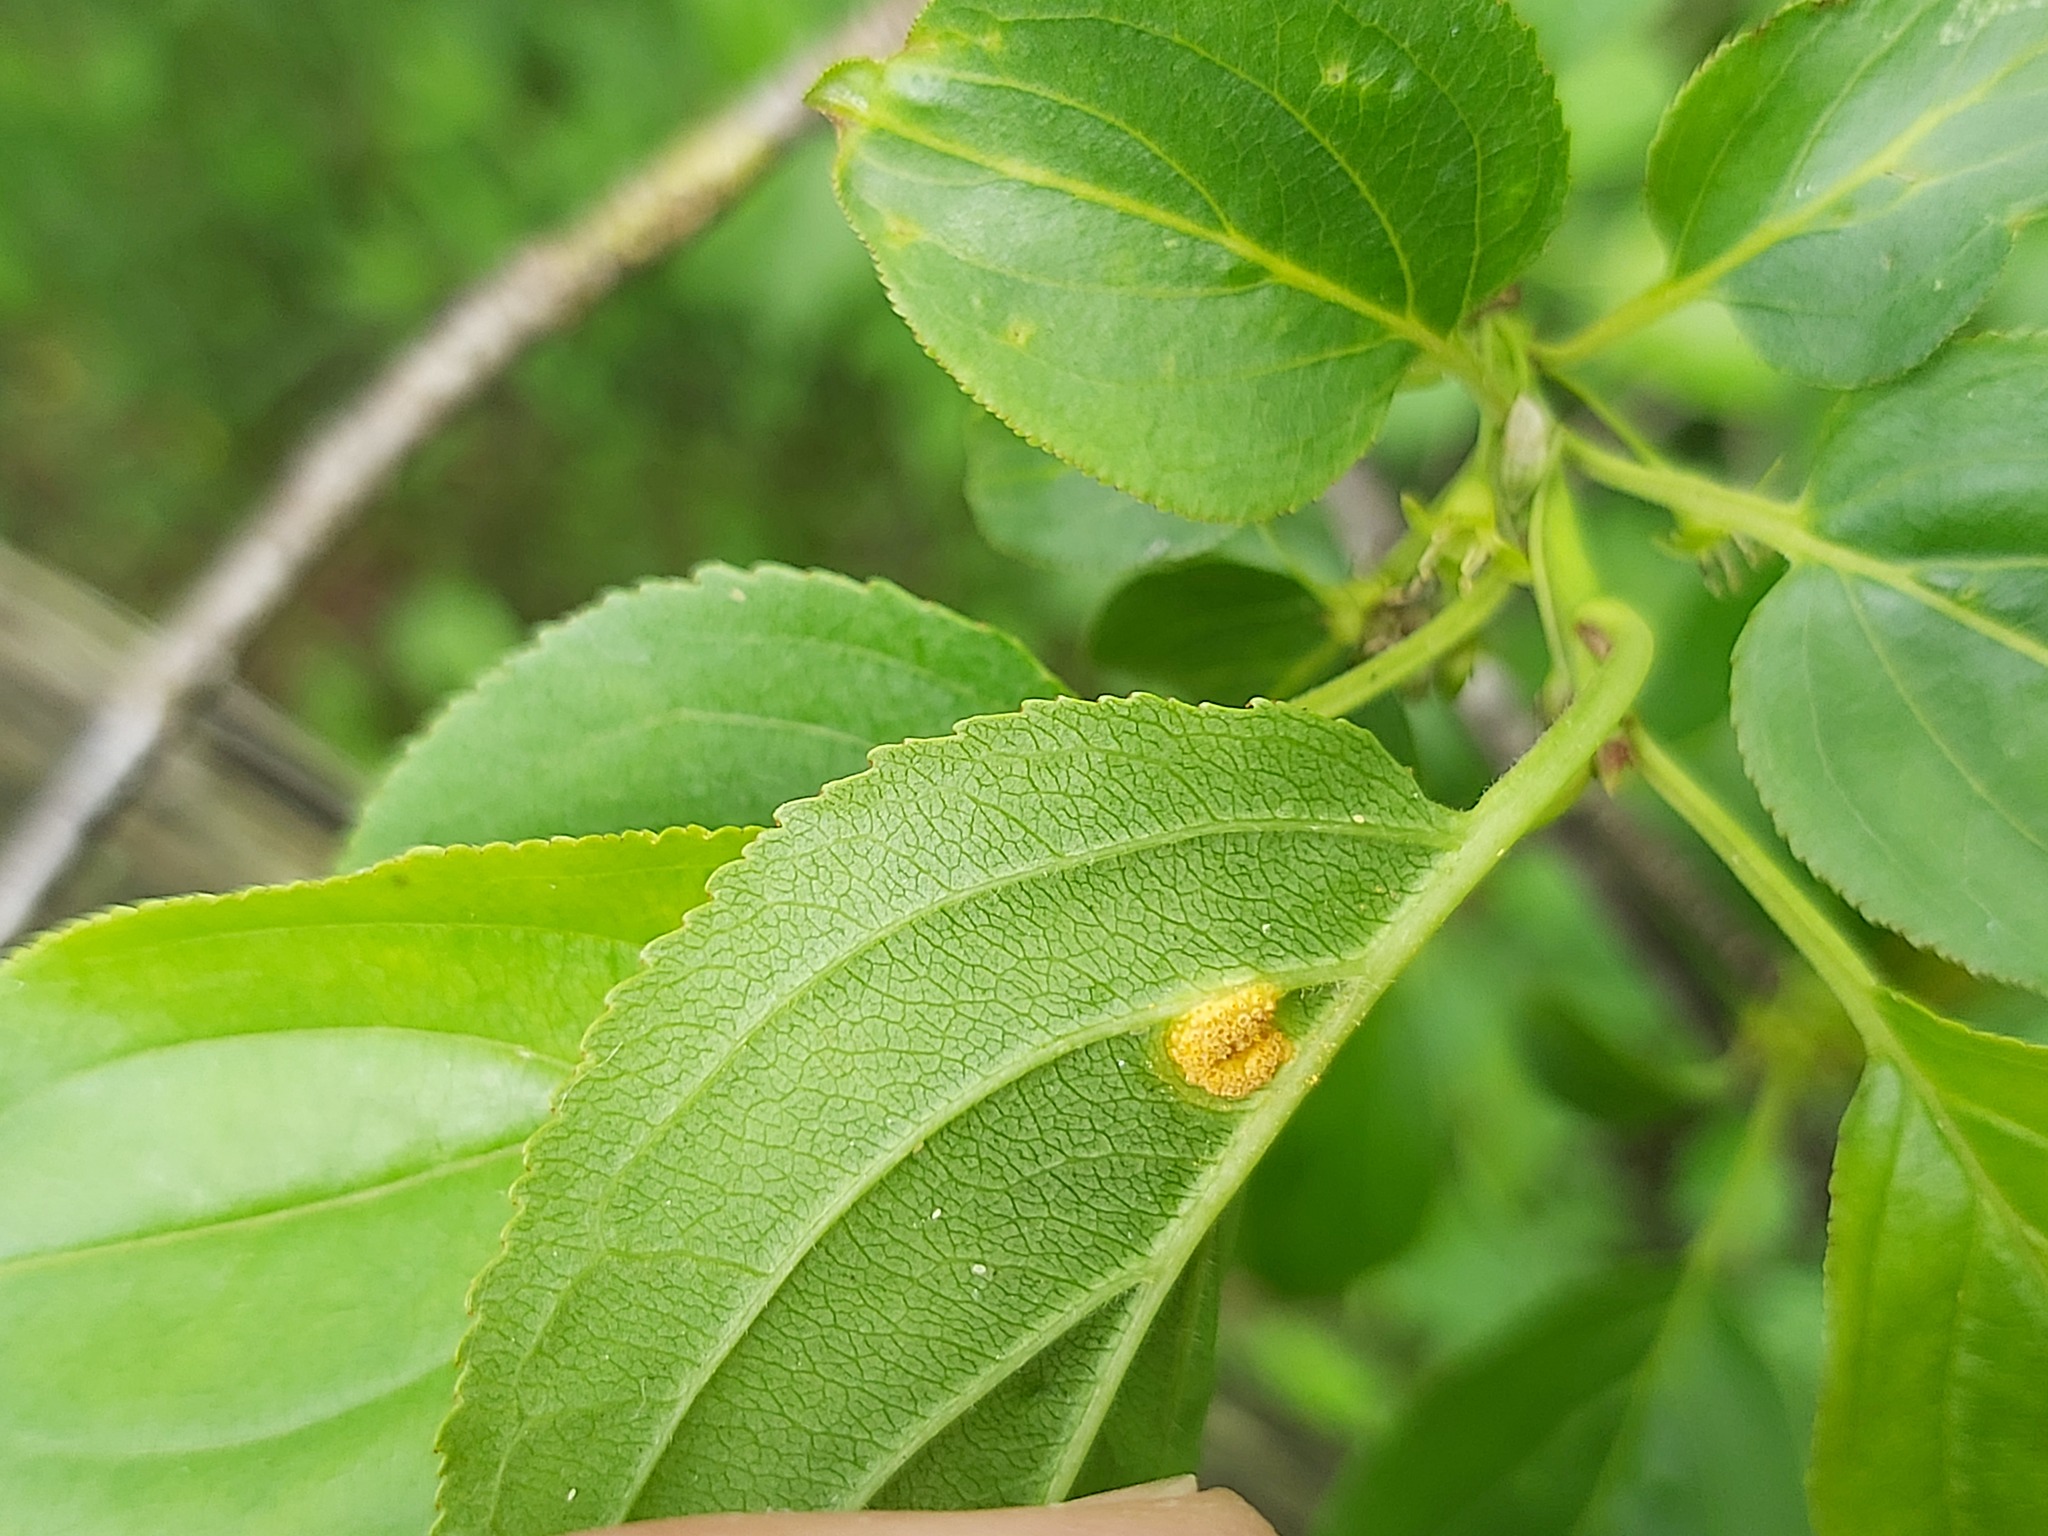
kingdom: Fungi
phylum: Basidiomycota
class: Pucciniomycetes
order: Pucciniales
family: Pucciniaceae
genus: Puccinia
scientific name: Puccinia coronata
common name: Crown rust
